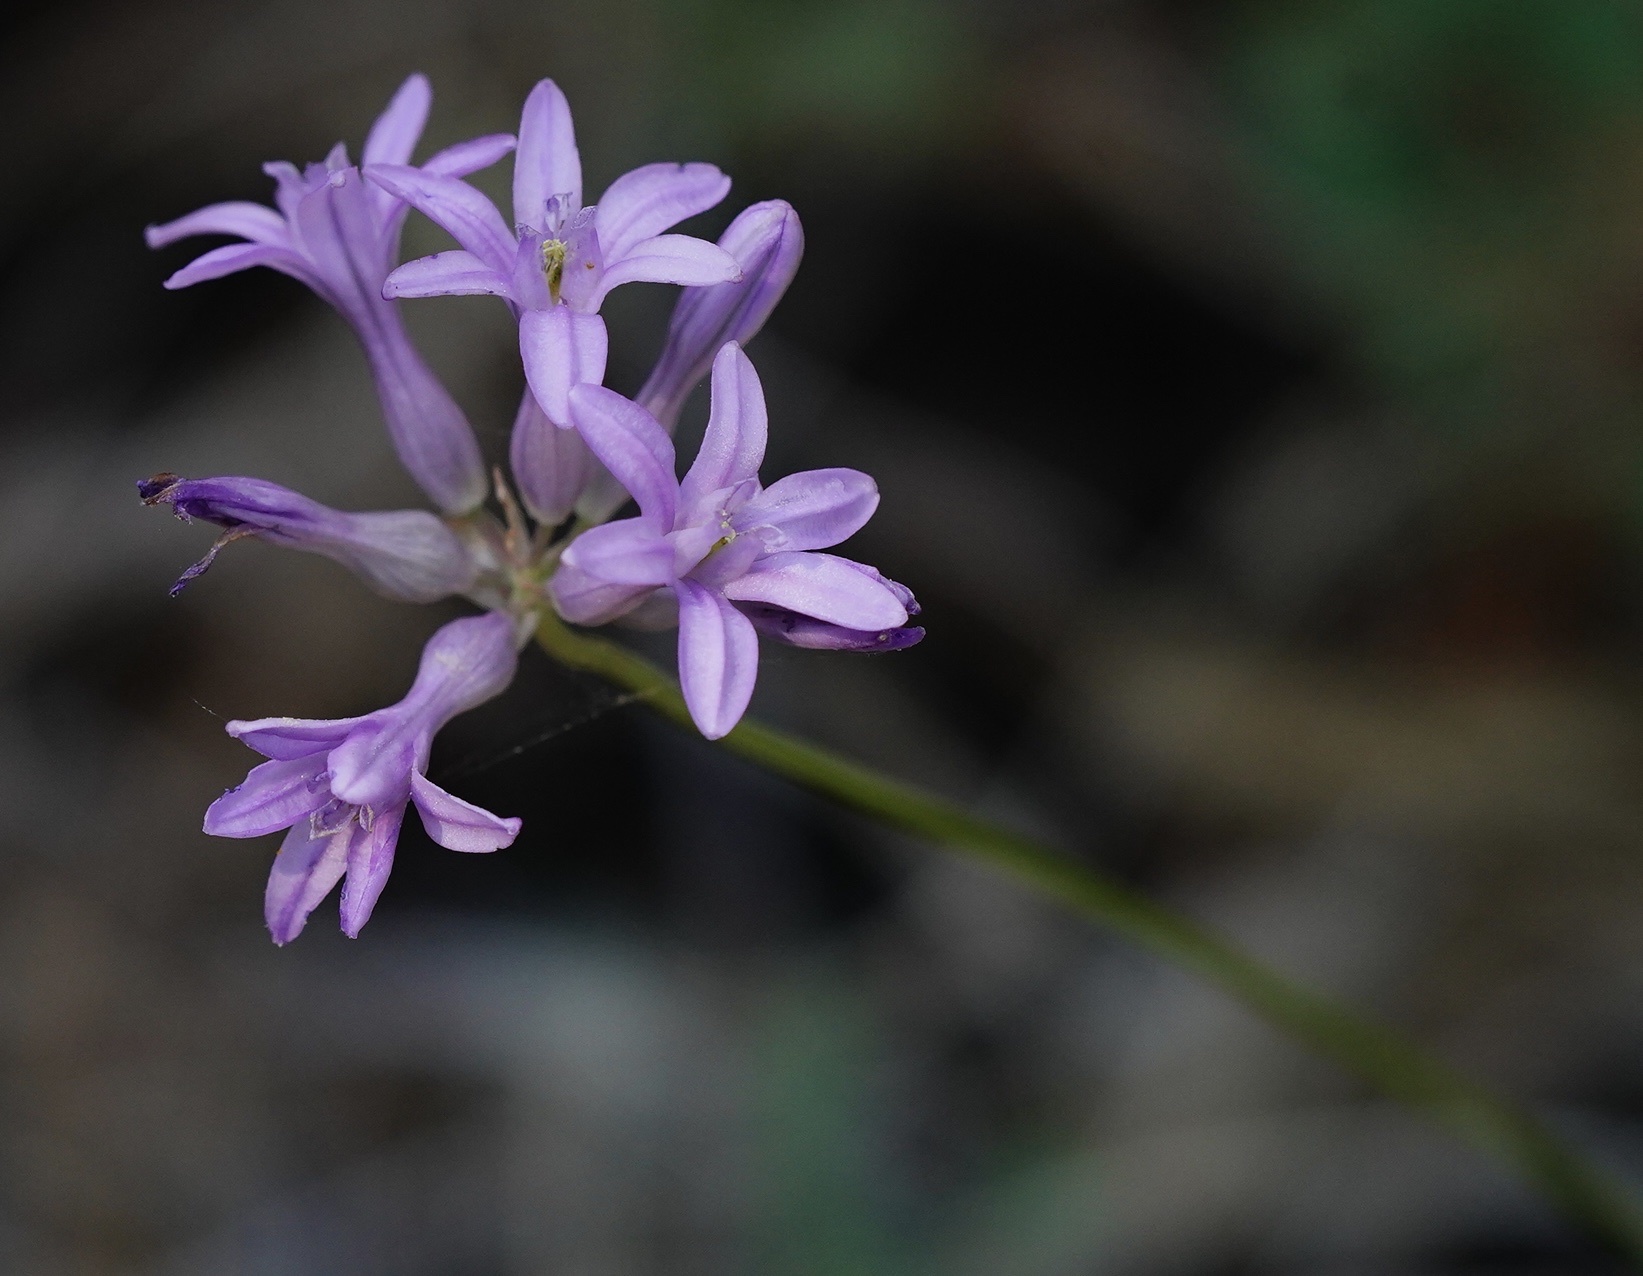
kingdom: Plantae
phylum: Tracheophyta
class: Liliopsida
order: Asparagales
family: Asparagaceae
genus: Dichelostemma
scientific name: Dichelostemma multiflorum
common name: Round-tooth ookow
